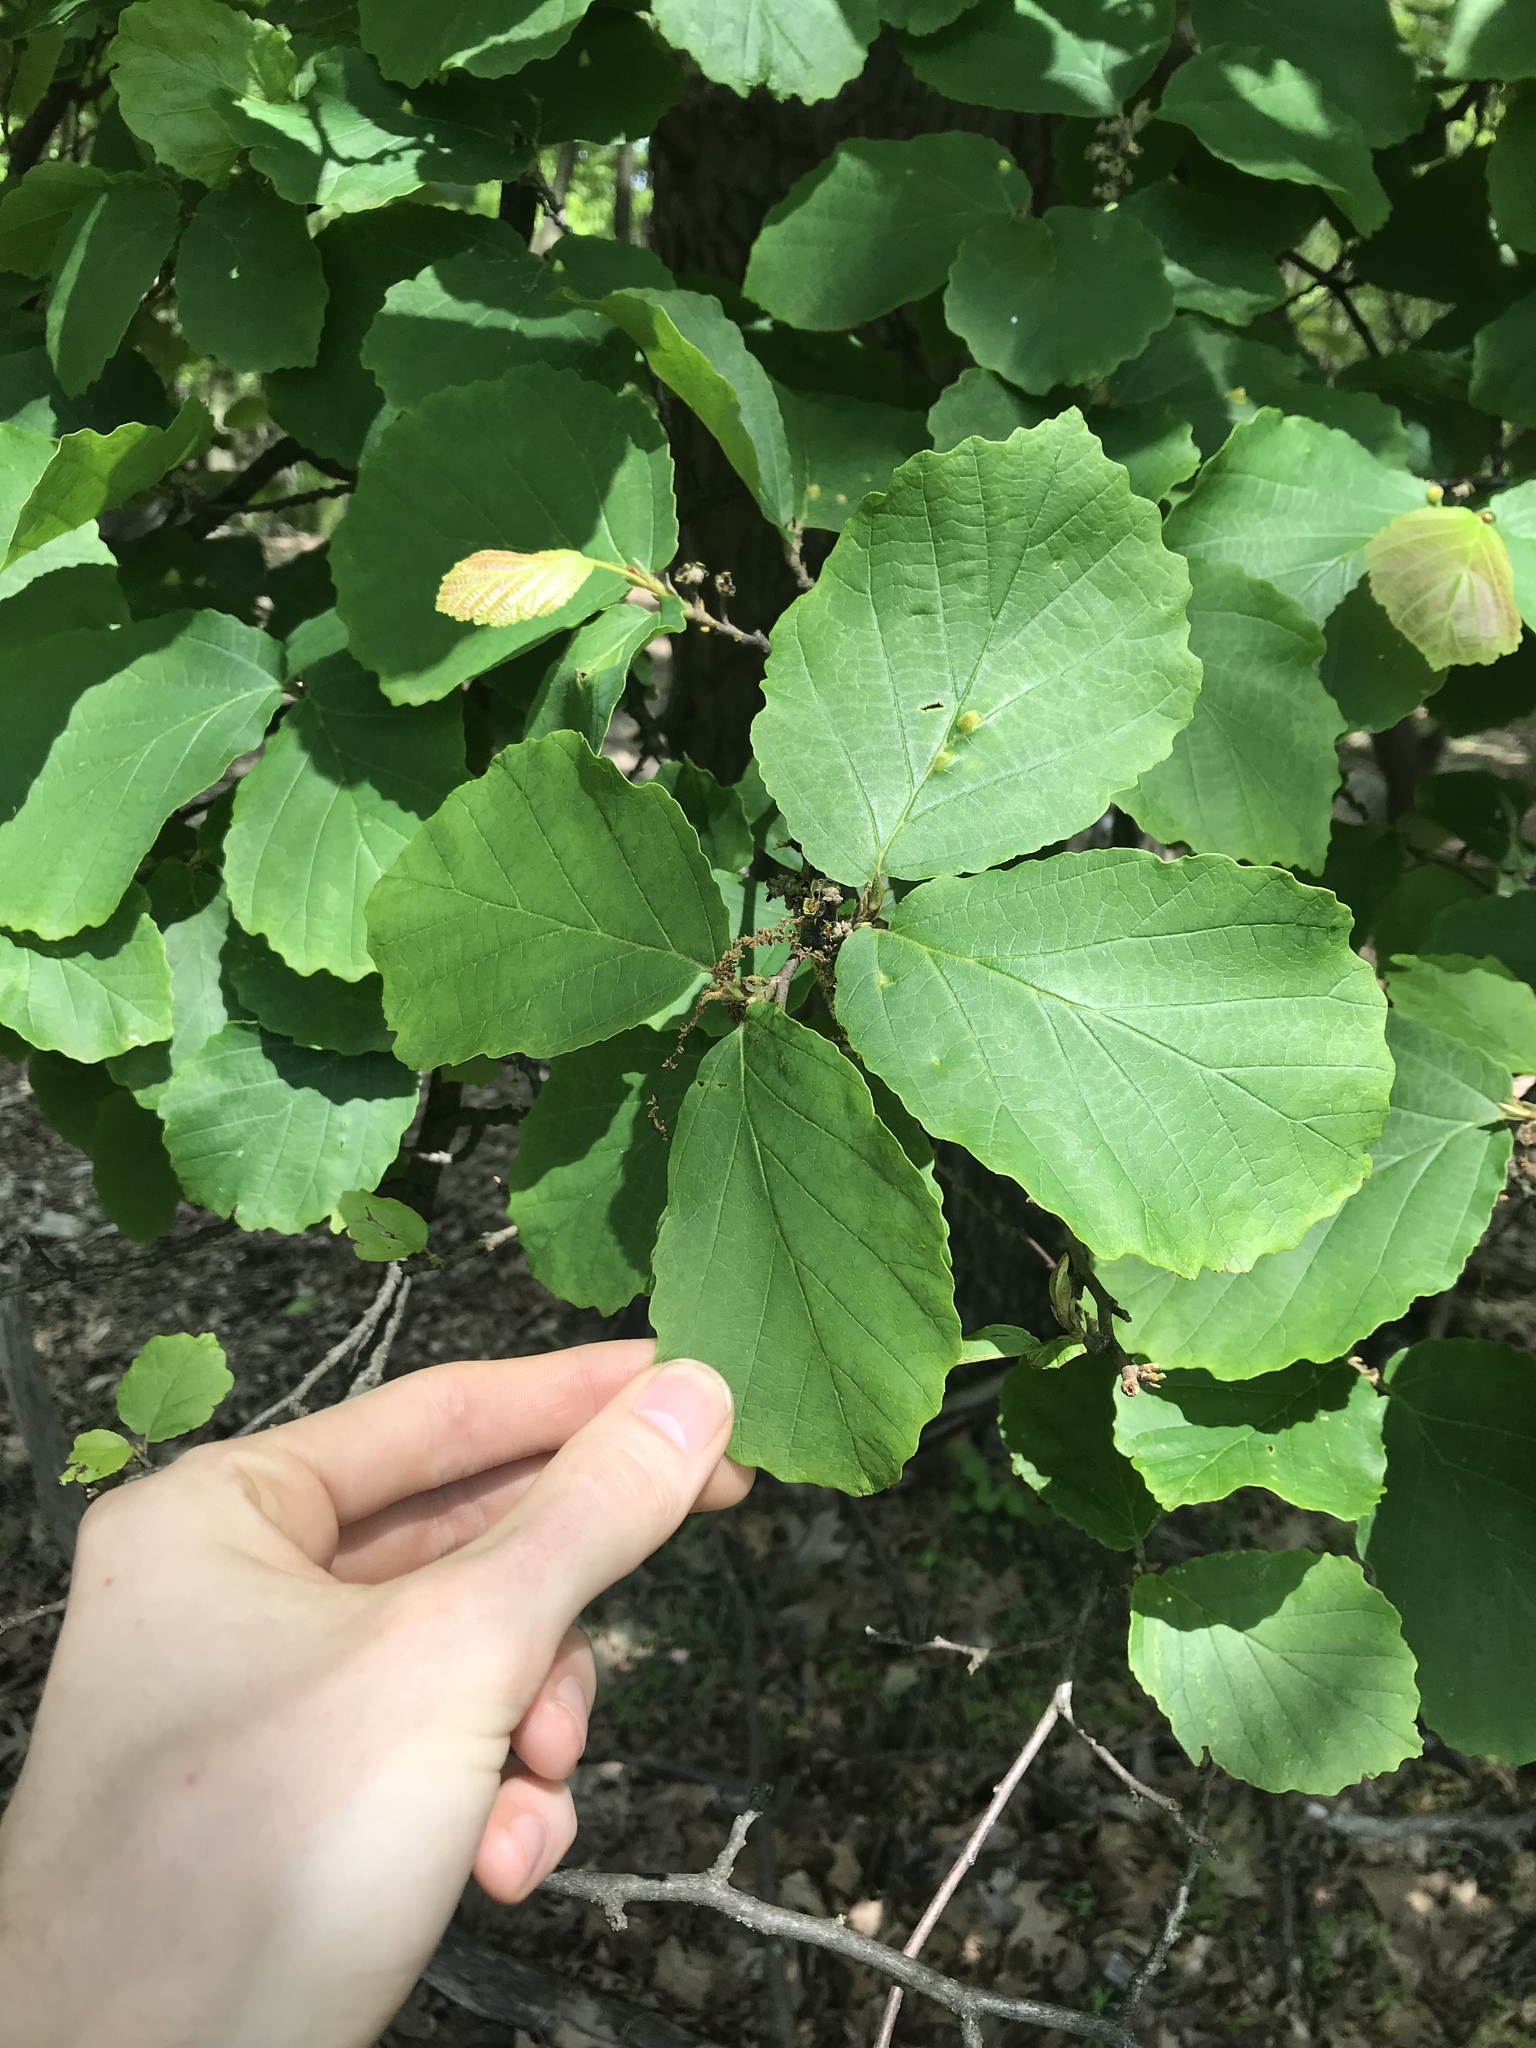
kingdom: Plantae
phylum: Tracheophyta
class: Magnoliopsida
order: Saxifragales
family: Hamamelidaceae
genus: Hamamelis
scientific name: Hamamelis virginiana
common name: Witch-hazel
